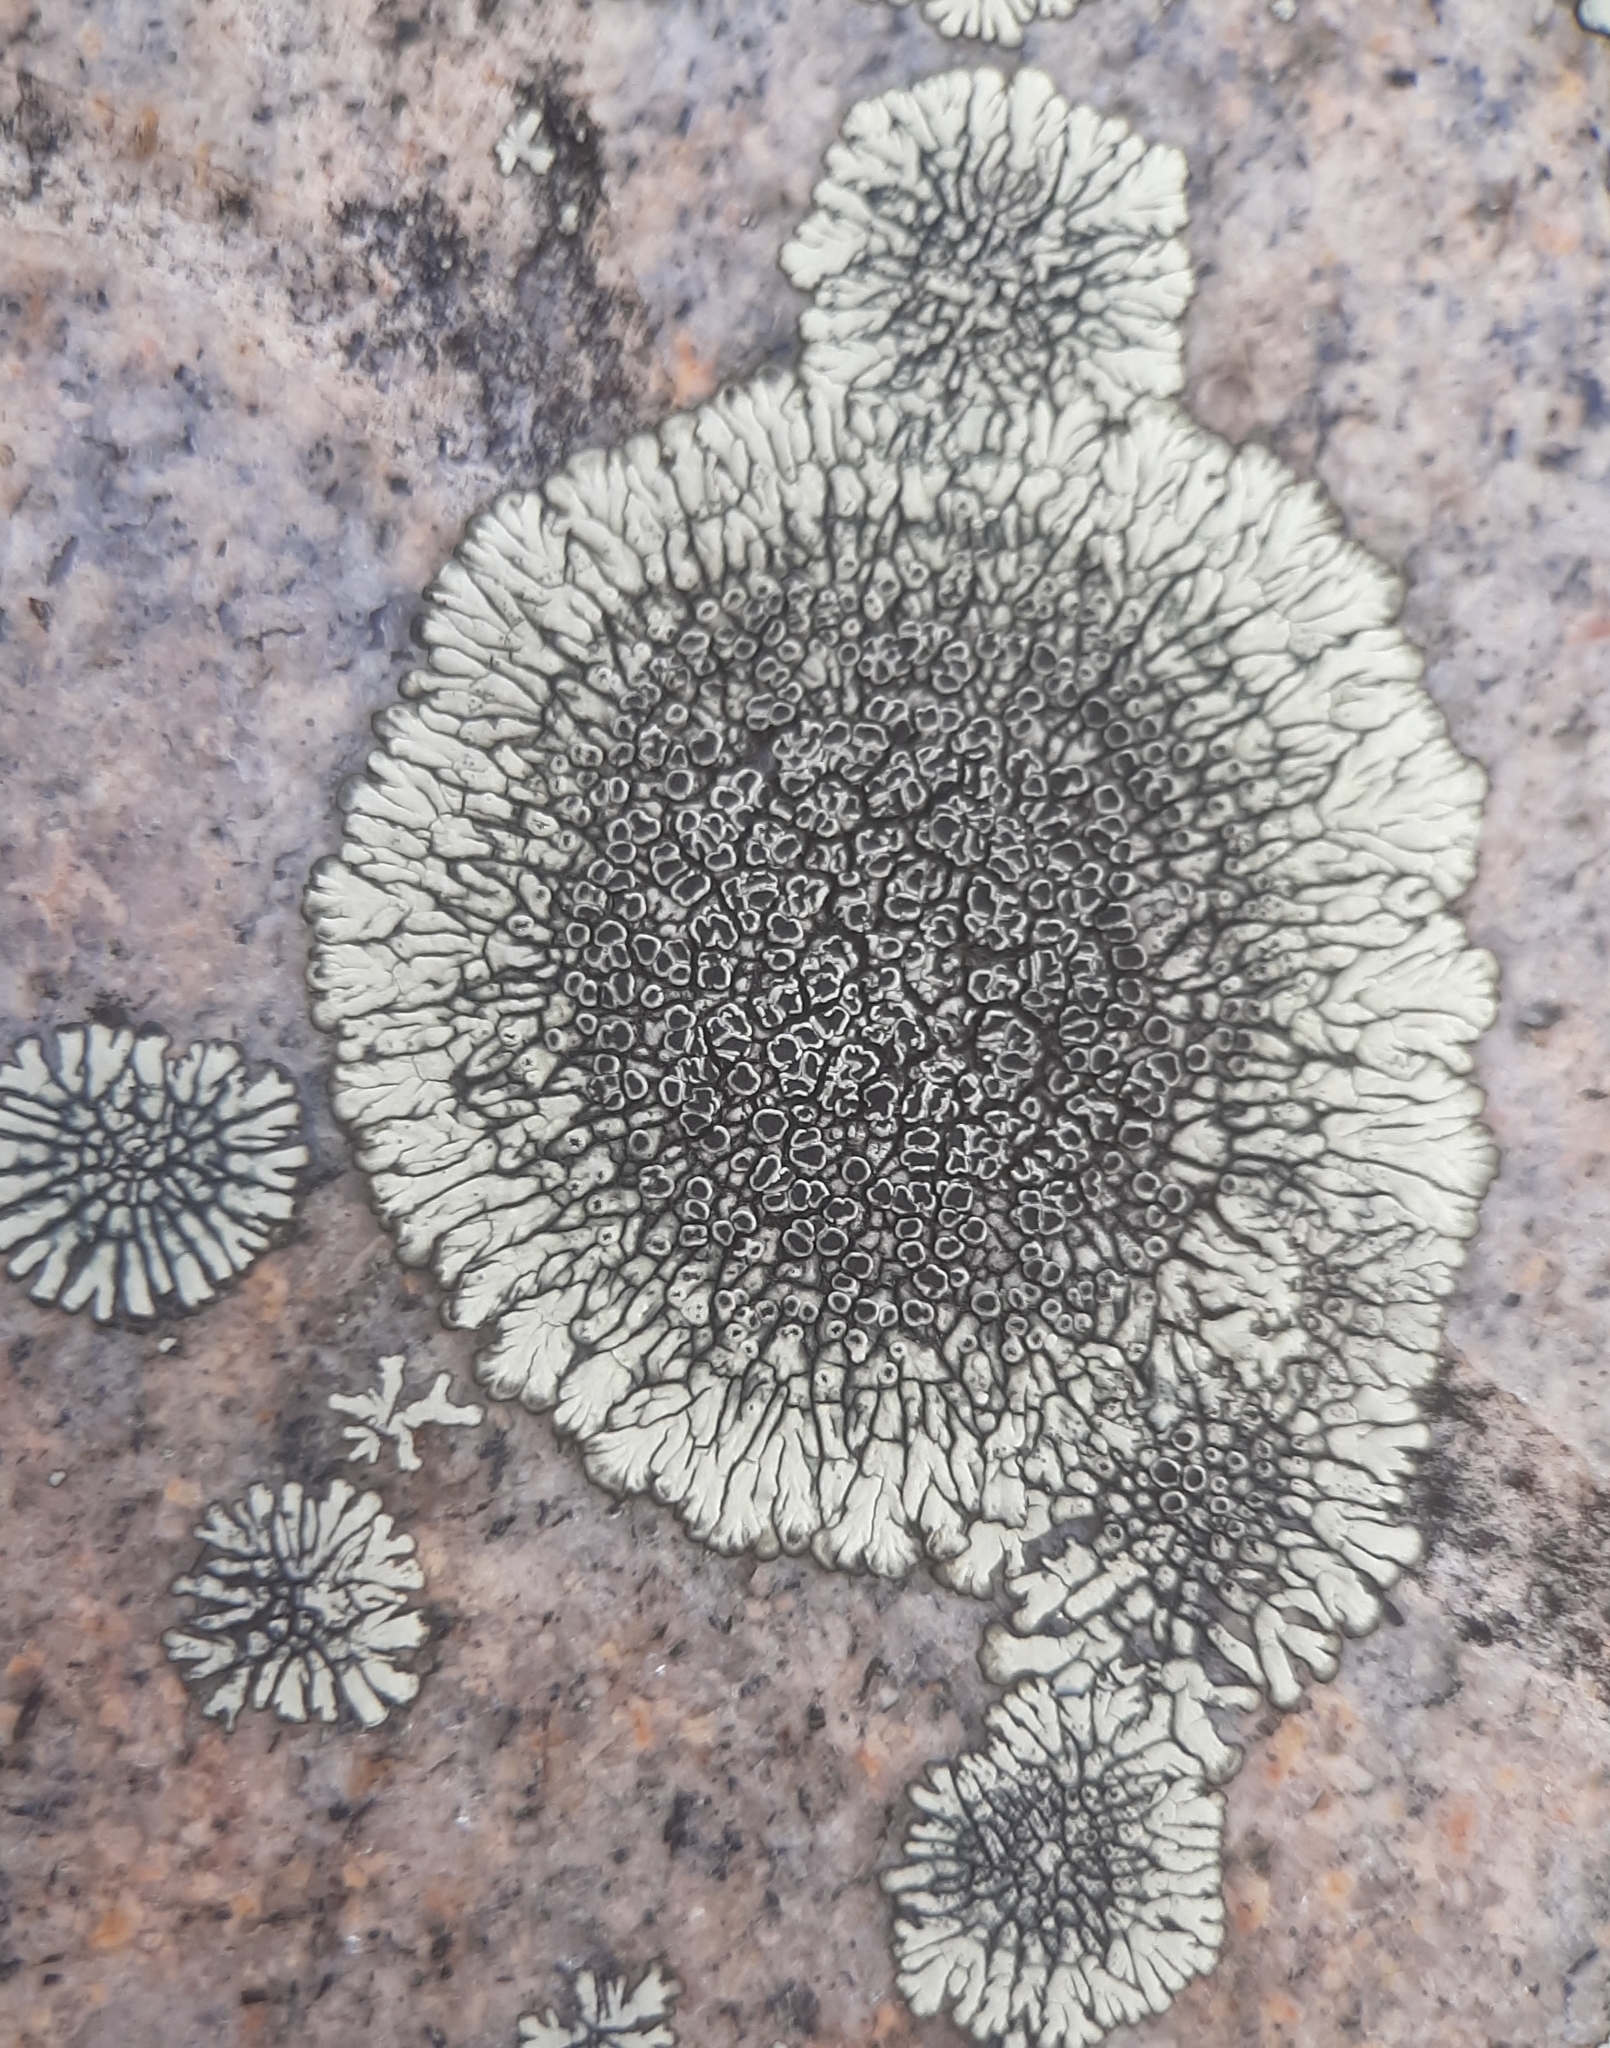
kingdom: Fungi
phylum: Ascomycota
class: Lecanoromycetes
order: Caliciales
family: Caliciaceae
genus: Dimelaena
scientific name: Dimelaena oreina
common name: Golden moonglow lichen
